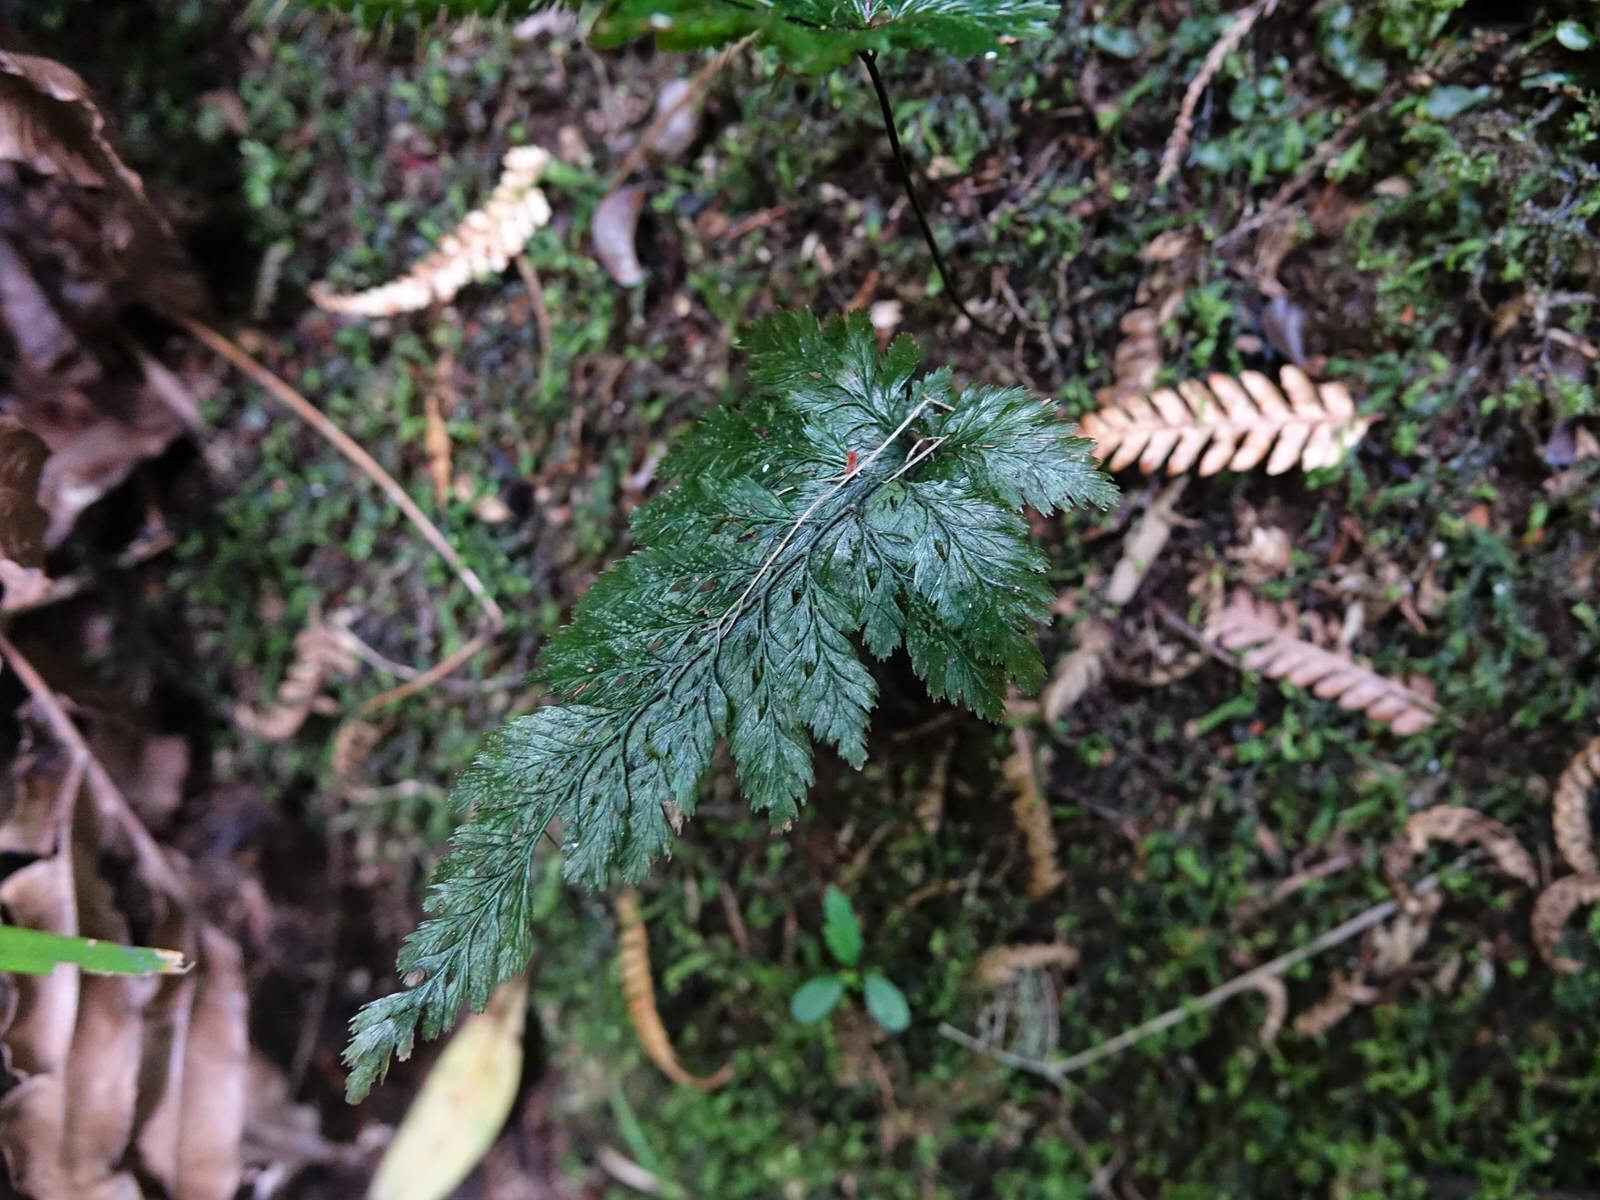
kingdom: Plantae
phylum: Tracheophyta
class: Polypodiopsida
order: Hymenophyllales
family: Hymenophyllaceae
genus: Abrodictyum
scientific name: Abrodictyum elongatum
